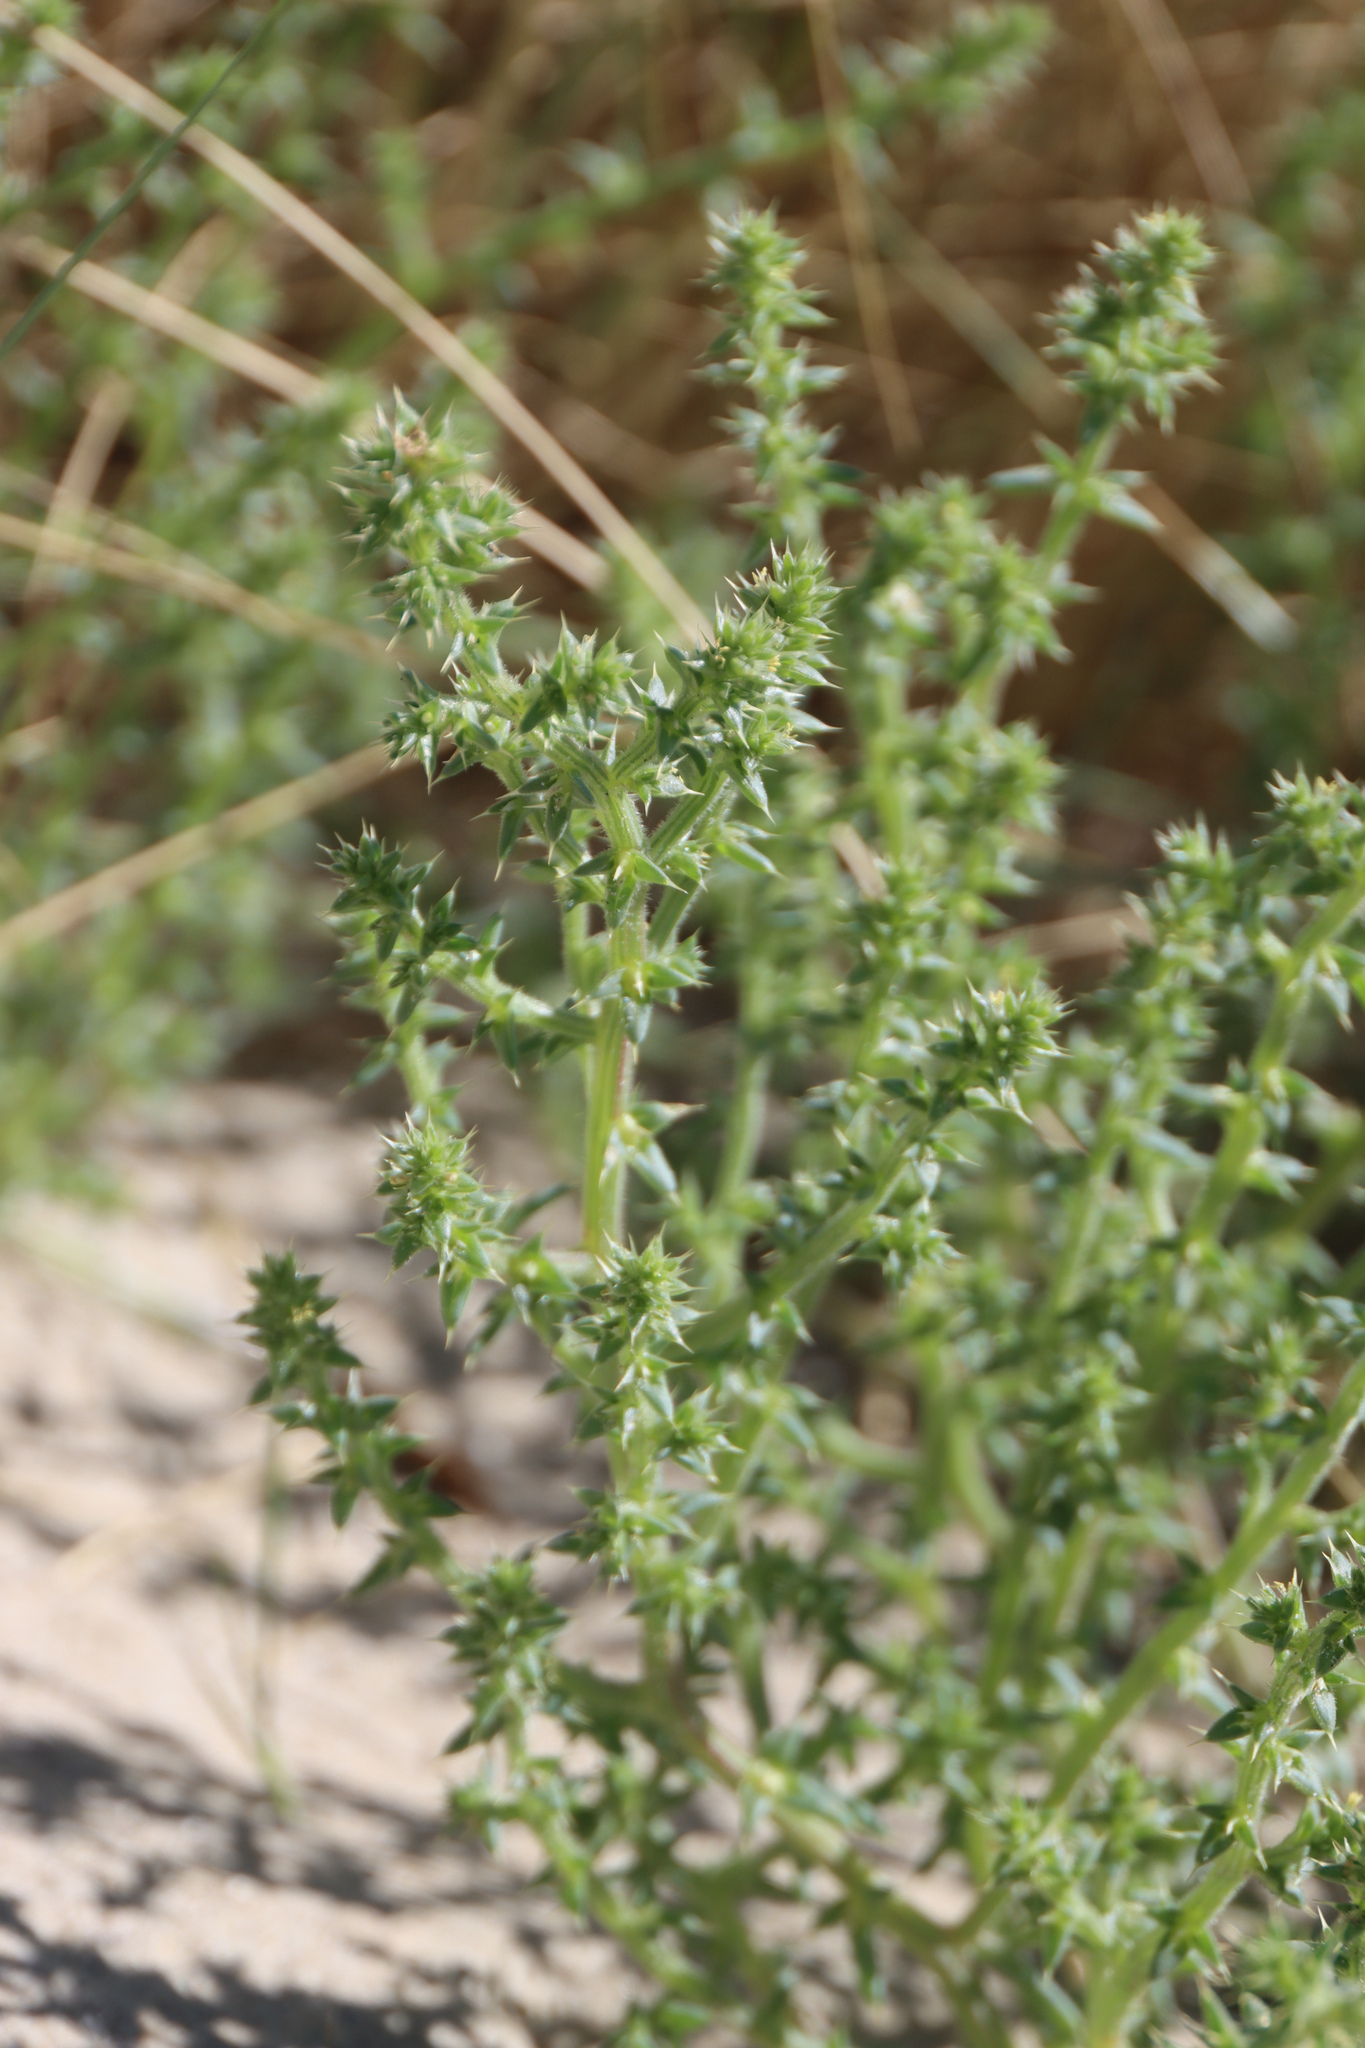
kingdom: Plantae
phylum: Tracheophyta
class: Magnoliopsida
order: Caryophyllales
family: Amaranthaceae
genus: Salsola
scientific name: Salsola kali
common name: Saltwort
